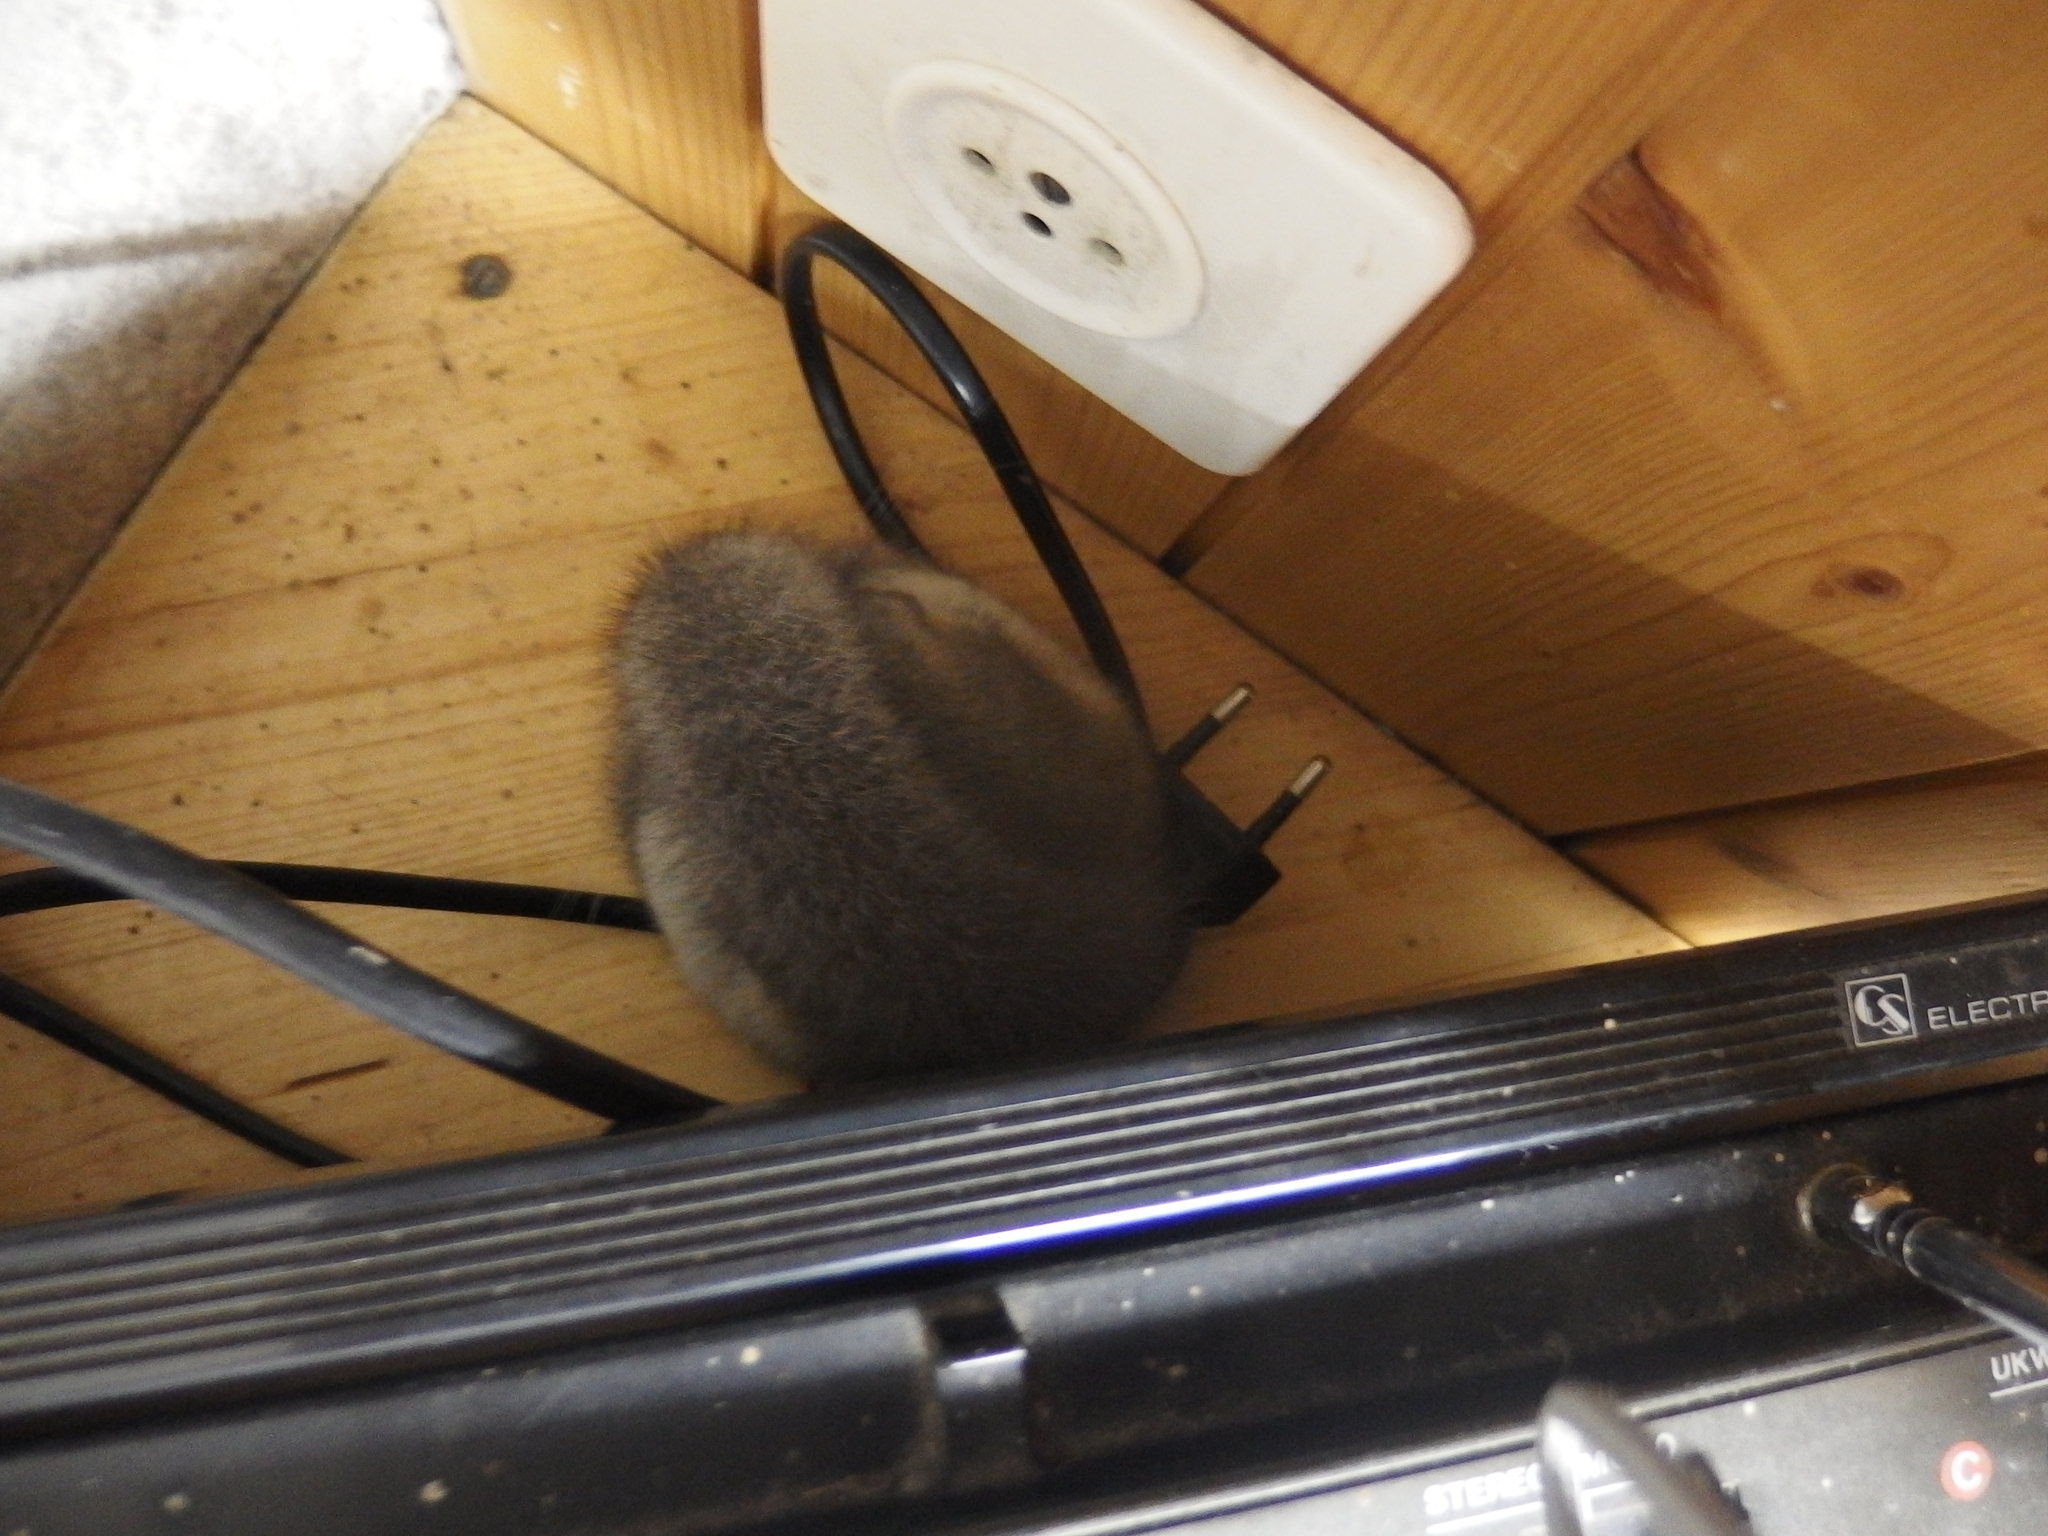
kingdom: Animalia
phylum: Chordata
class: Mammalia
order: Rodentia
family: Gliridae
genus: Glis
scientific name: Glis glis
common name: Fat dormouse
